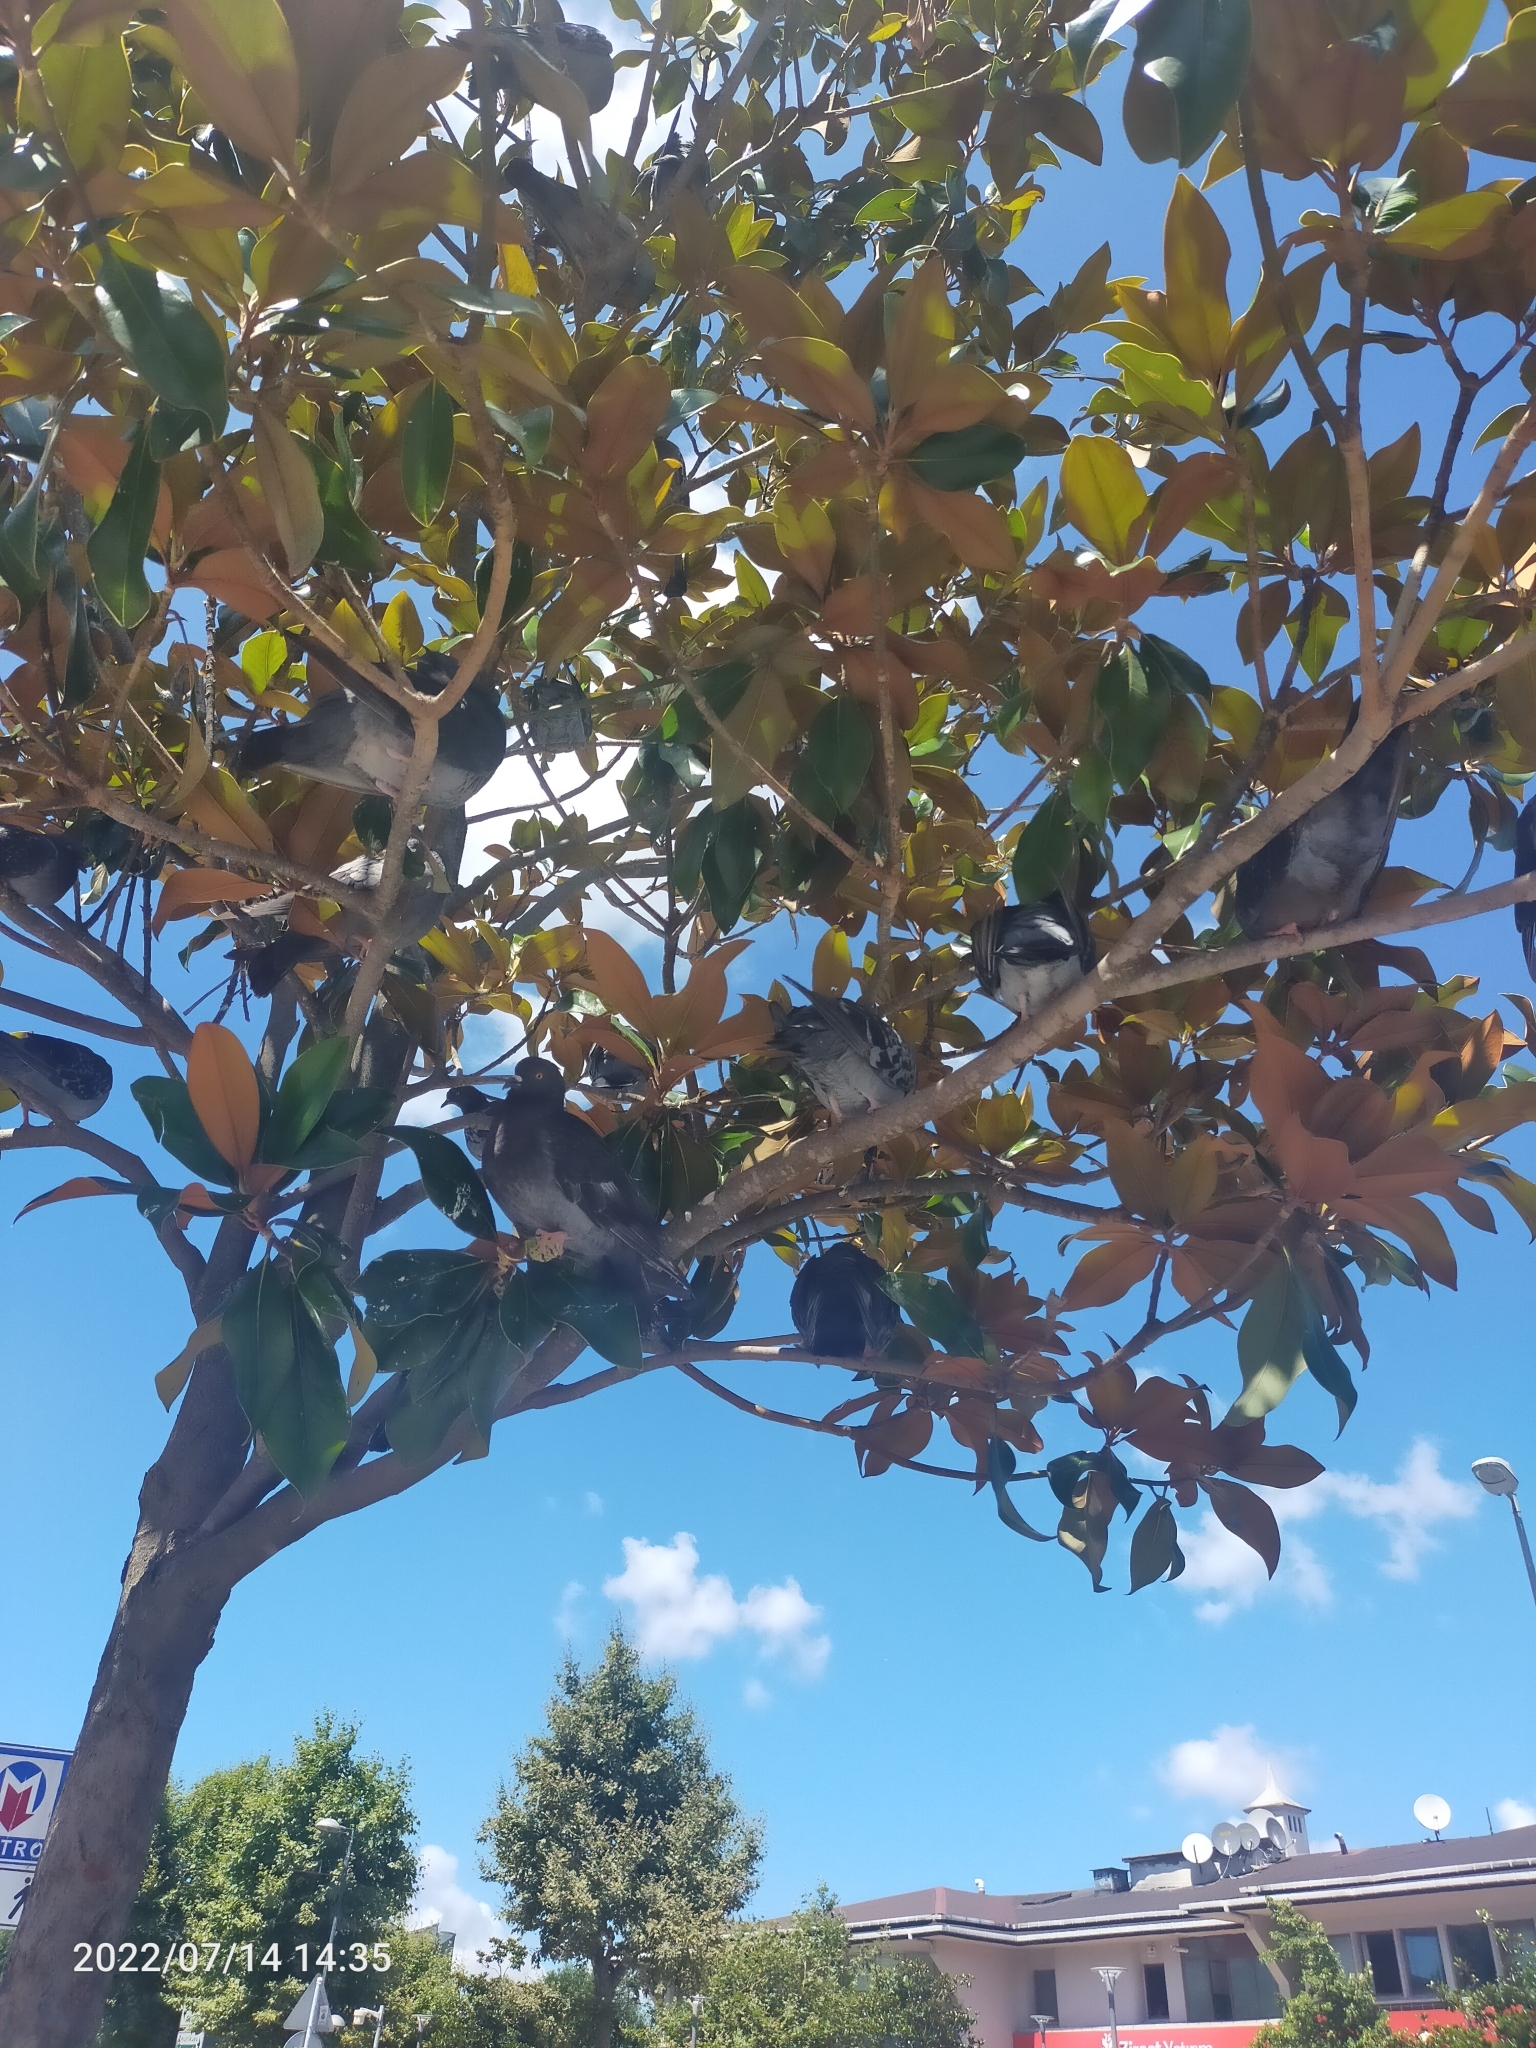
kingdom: Animalia
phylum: Chordata
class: Aves
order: Columbiformes
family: Columbidae
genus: Columba
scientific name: Columba livia
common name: Rock pigeon
